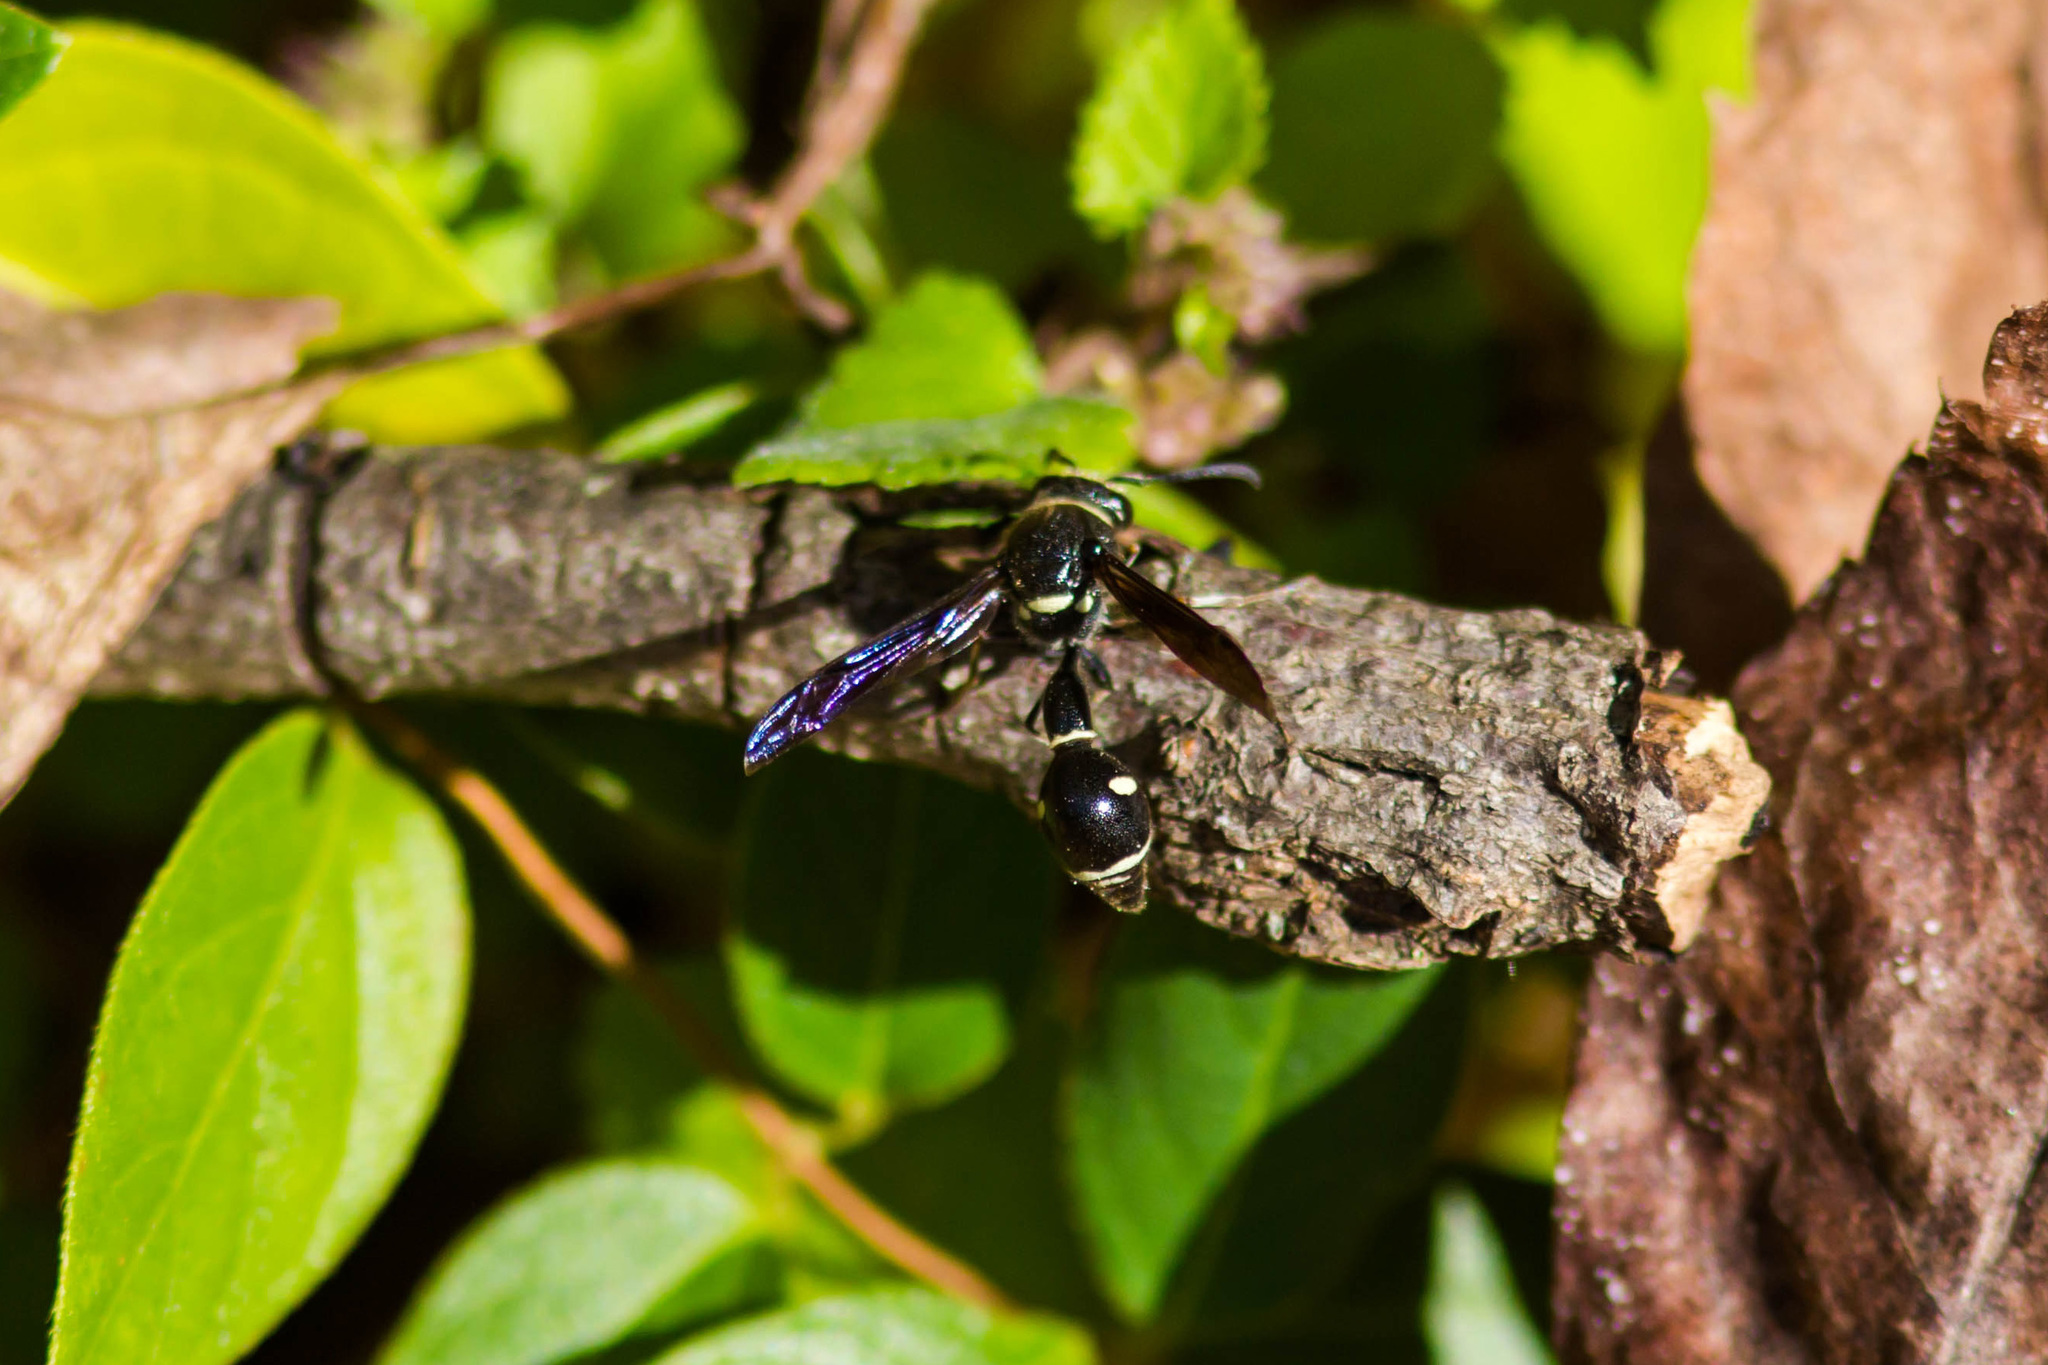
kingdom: Animalia
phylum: Arthropoda
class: Insecta
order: Hymenoptera
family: Vespidae
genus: Eumenes
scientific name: Eumenes fraternus
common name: Fraternal potter wasp
